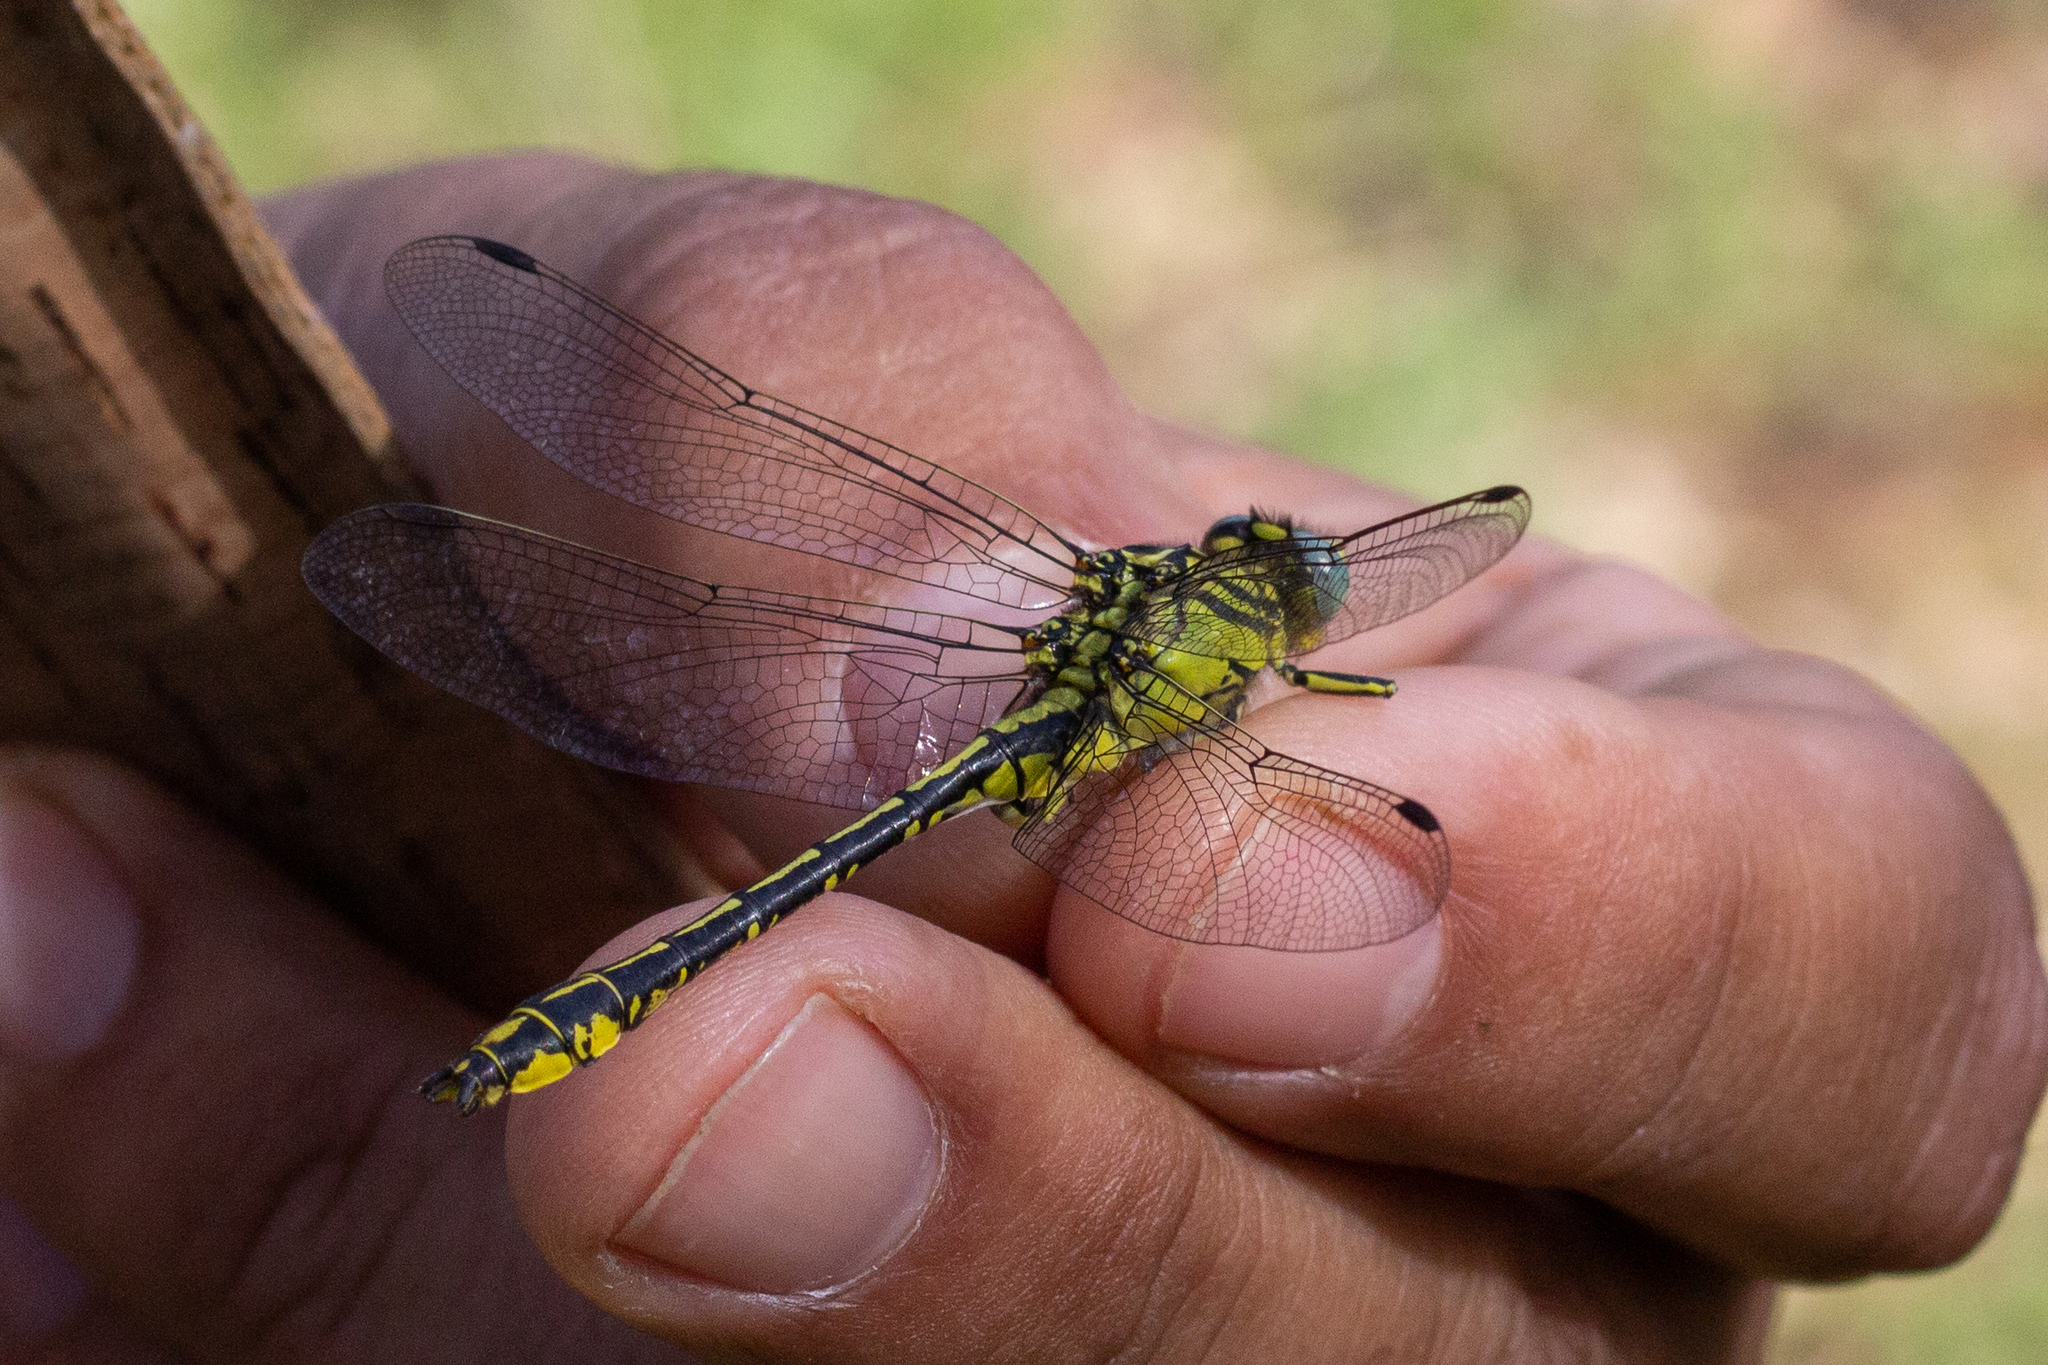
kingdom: Animalia
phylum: Arthropoda
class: Insecta
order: Odonata
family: Gomphidae
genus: Gomphus
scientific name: Gomphus simillimus
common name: Yellow clubtail
